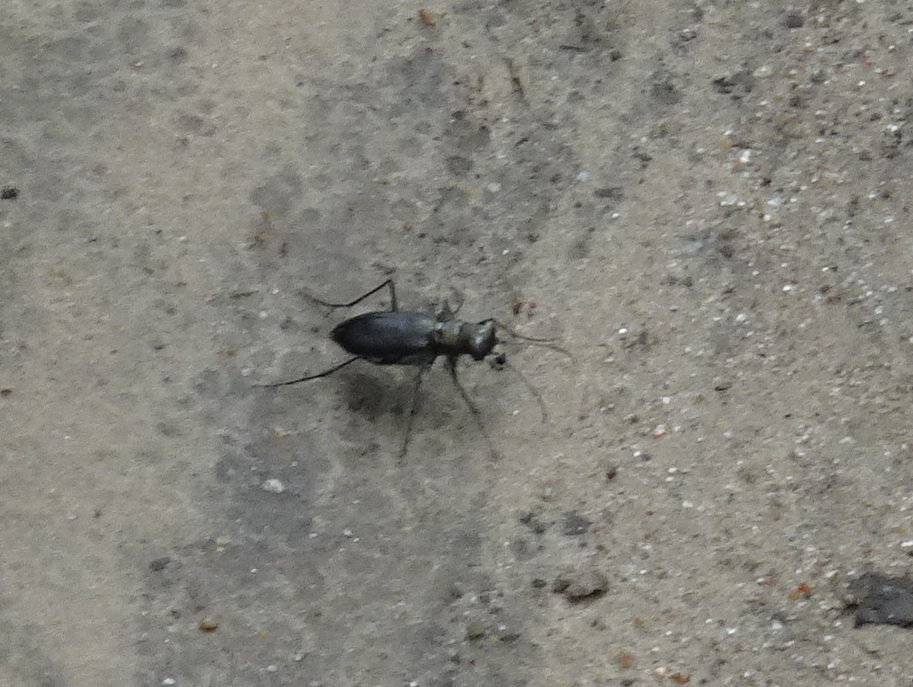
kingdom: Animalia
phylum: Arthropoda
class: Insecta
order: Coleoptera
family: Carabidae
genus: Cicindela
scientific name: Cicindela punctulata
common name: Punctured tiger beetle
